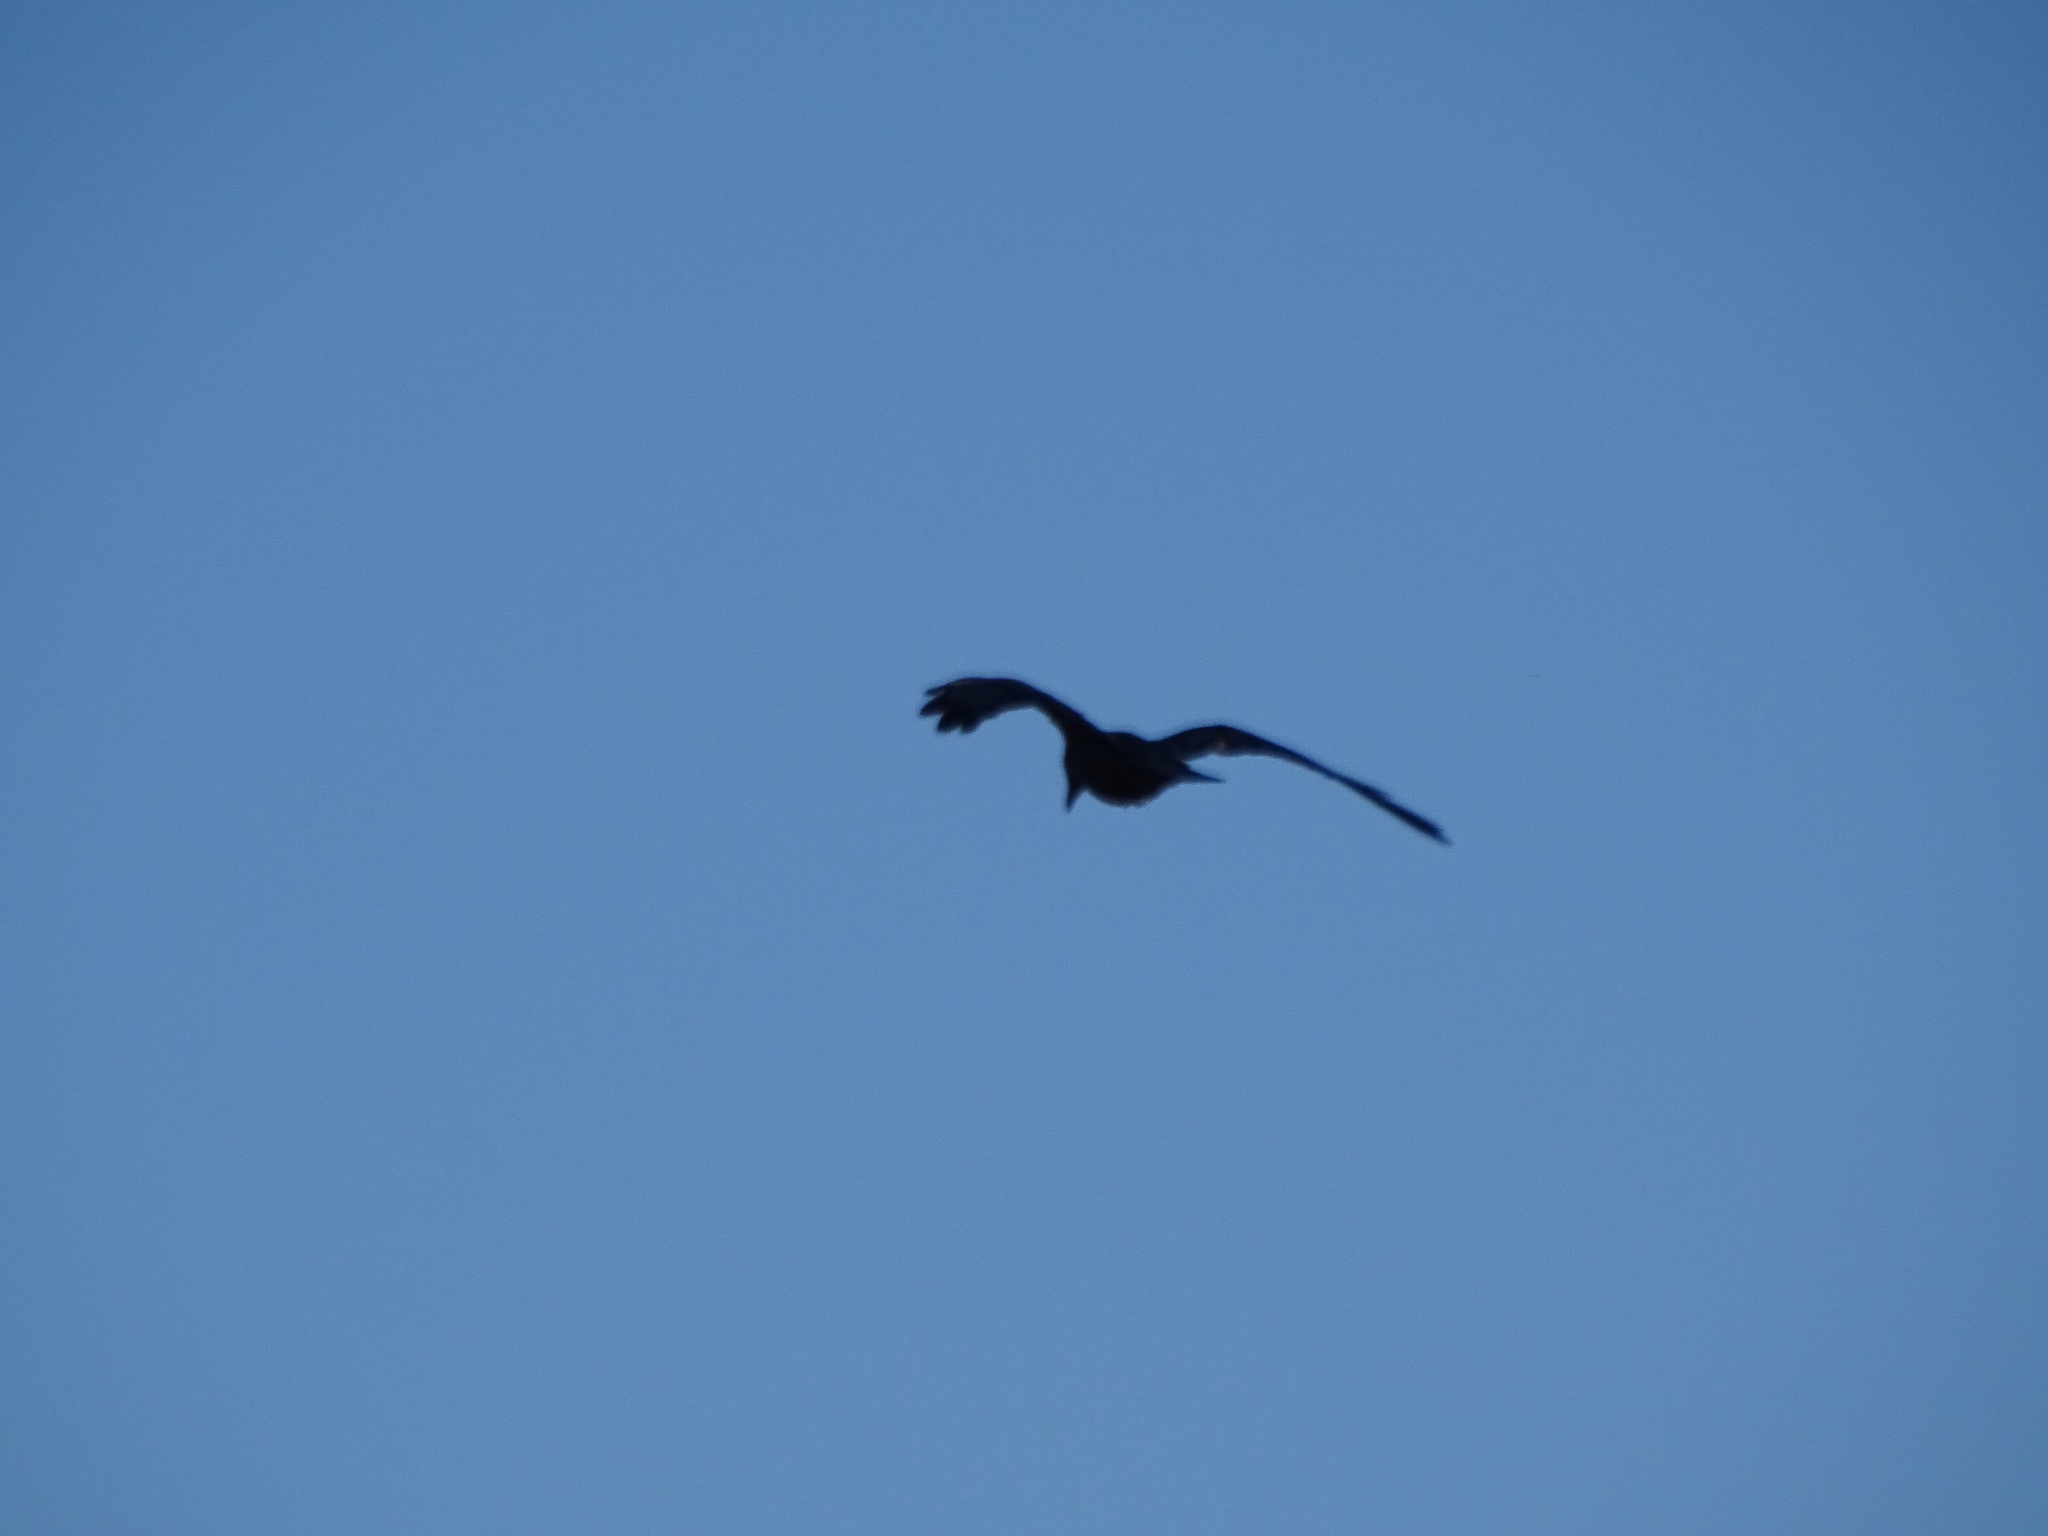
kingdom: Animalia
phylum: Chordata
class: Aves
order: Passeriformes
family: Corvidae
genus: Corvus
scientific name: Corvus corax
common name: Common raven
